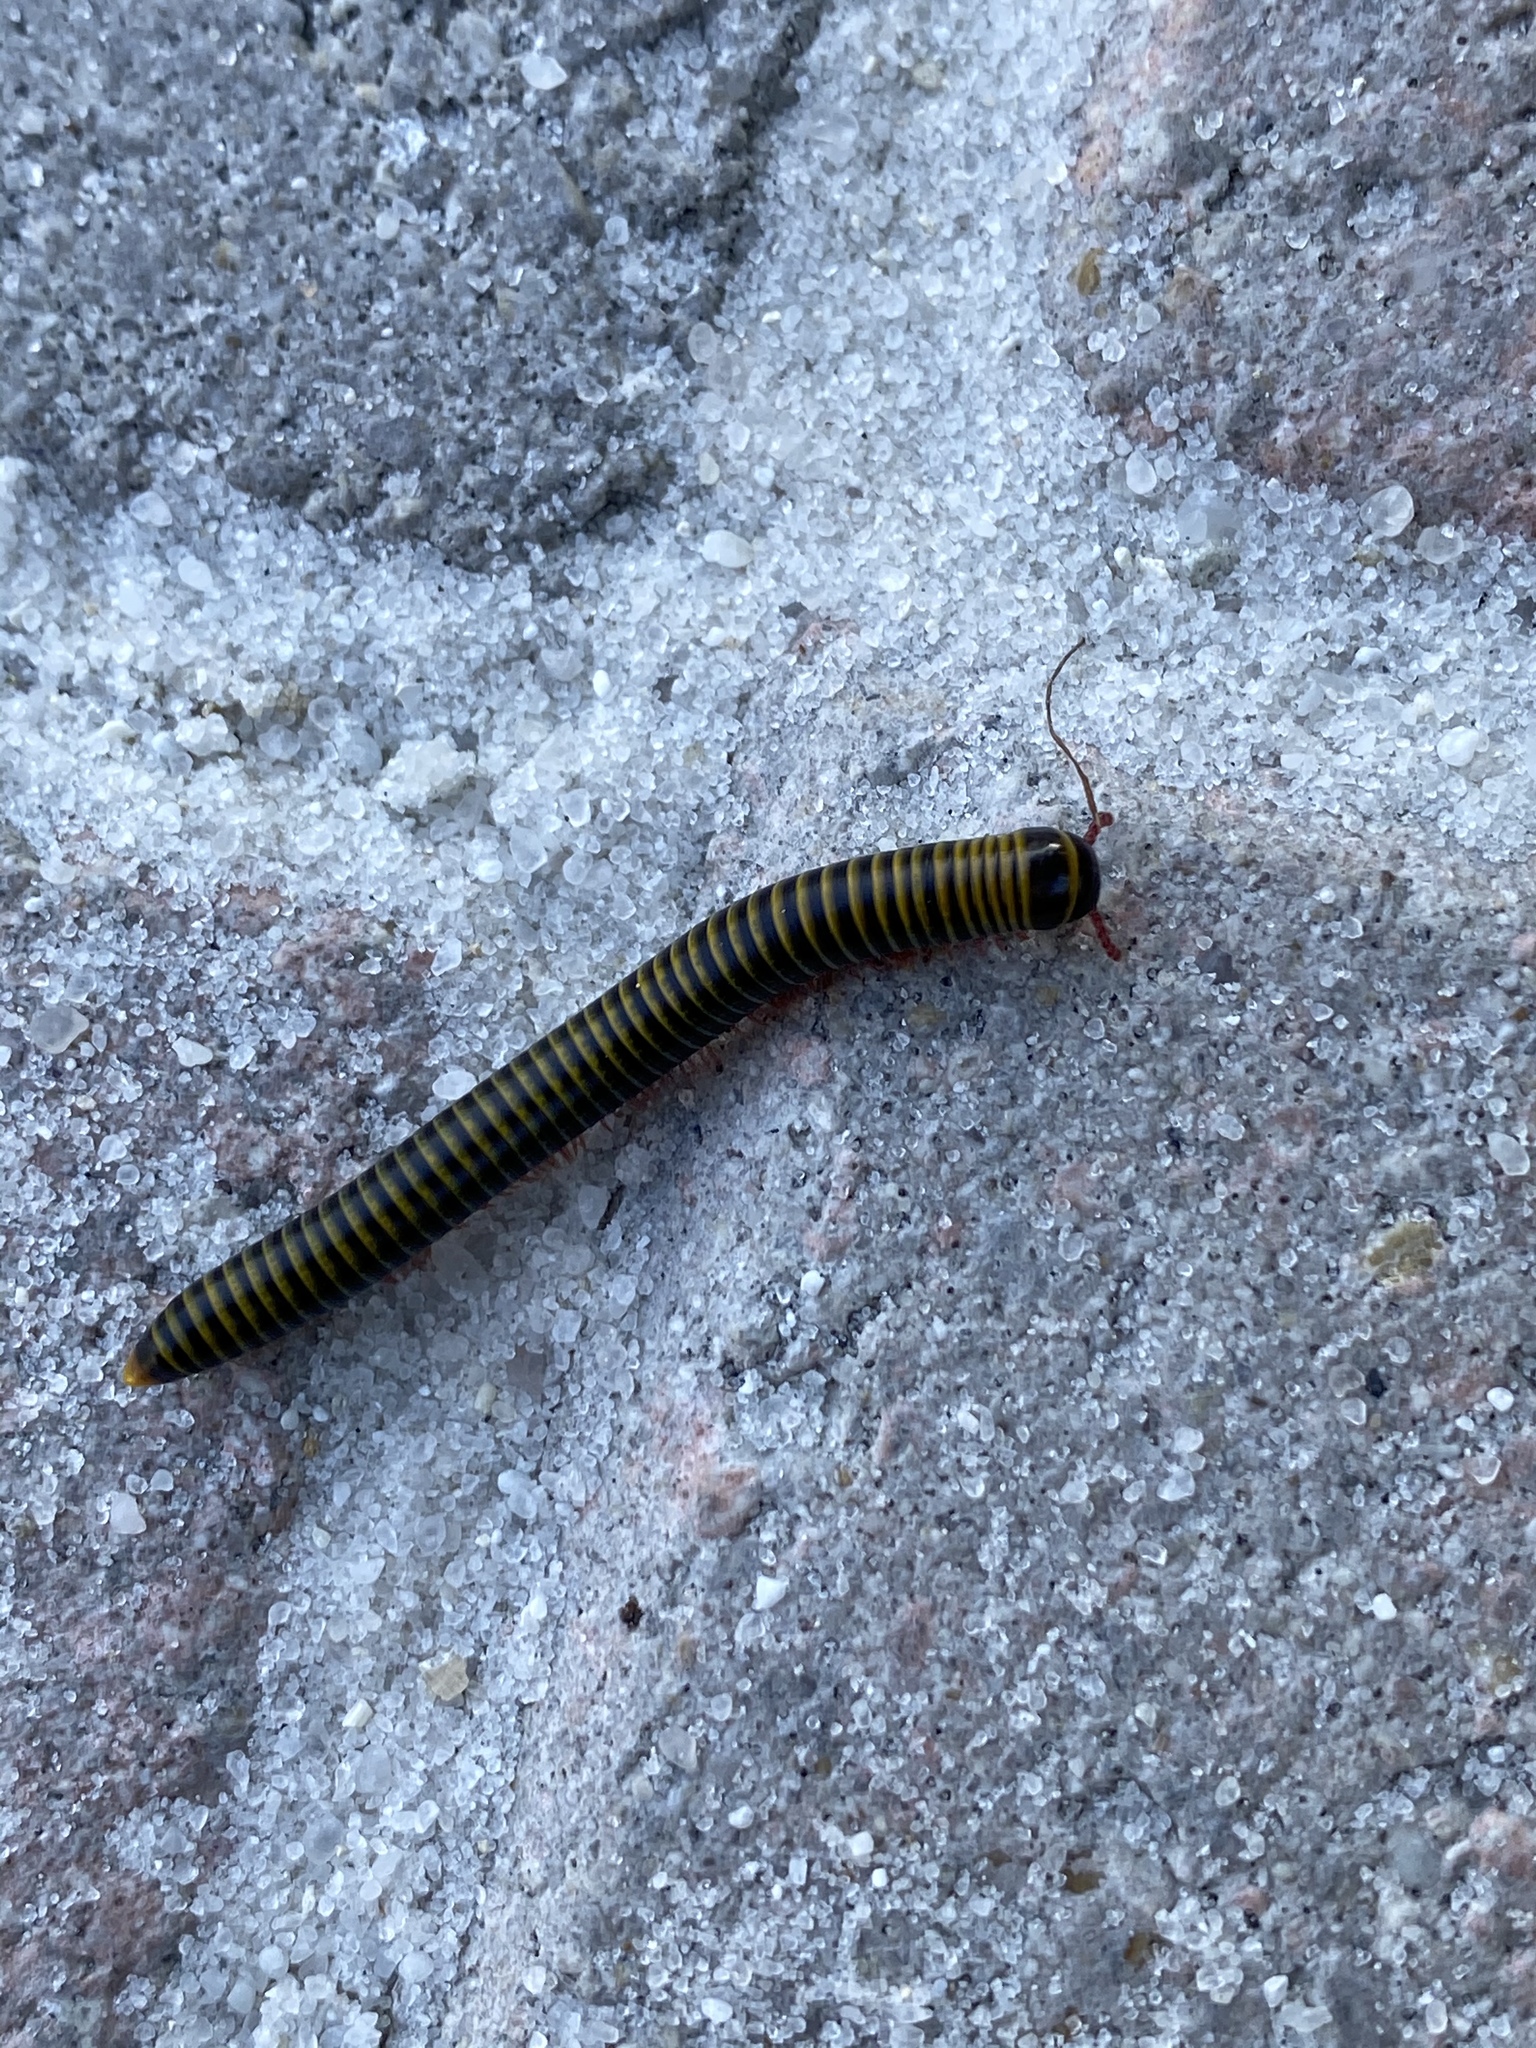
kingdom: Animalia
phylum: Arthropoda
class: Diplopoda
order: Spirobolida
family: Rhinocricidae
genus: Anadenobolus
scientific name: Anadenobolus monilicornis
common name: Caribbean millipede
